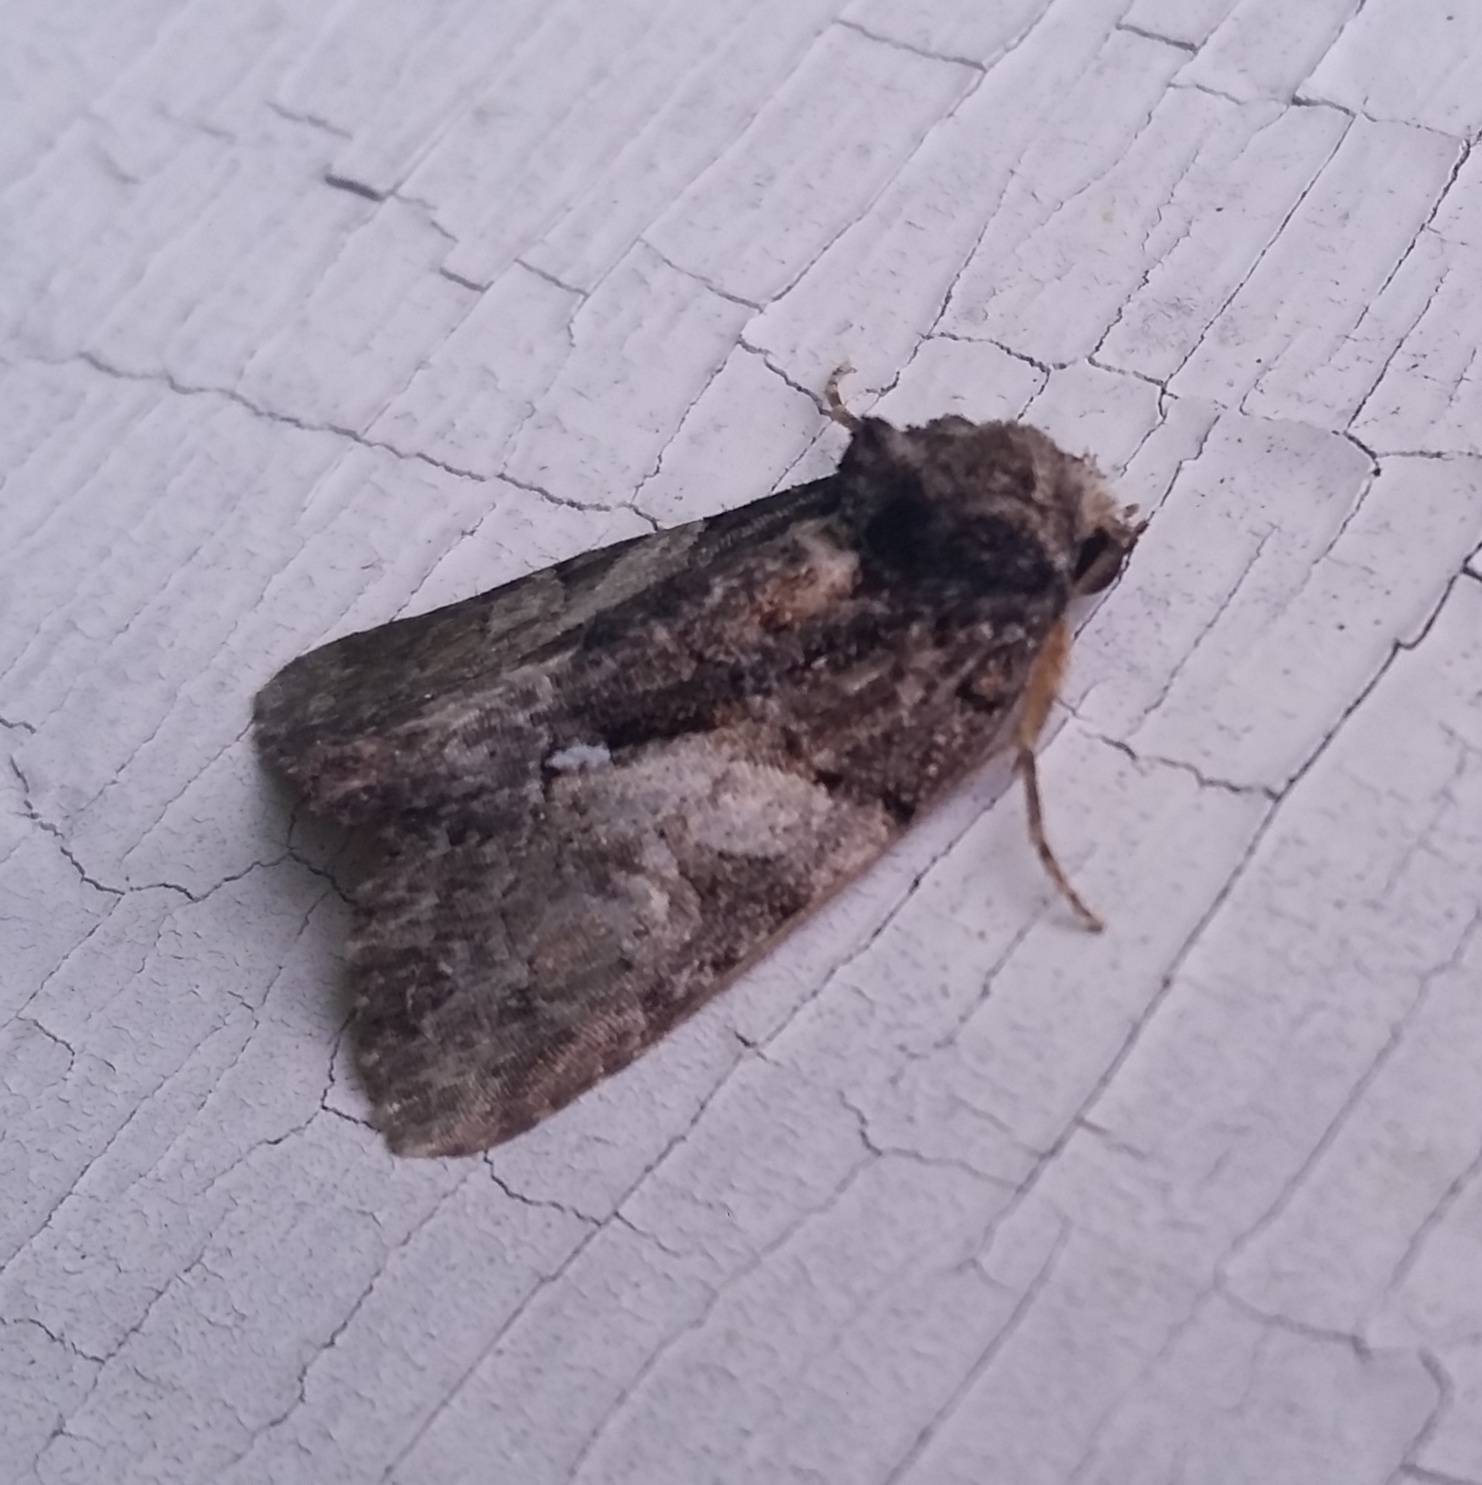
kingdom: Animalia
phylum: Arthropoda
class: Insecta
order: Lepidoptera
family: Noctuidae
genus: Chytonix
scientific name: Chytonix palliatricula
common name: Cloaked marvel
